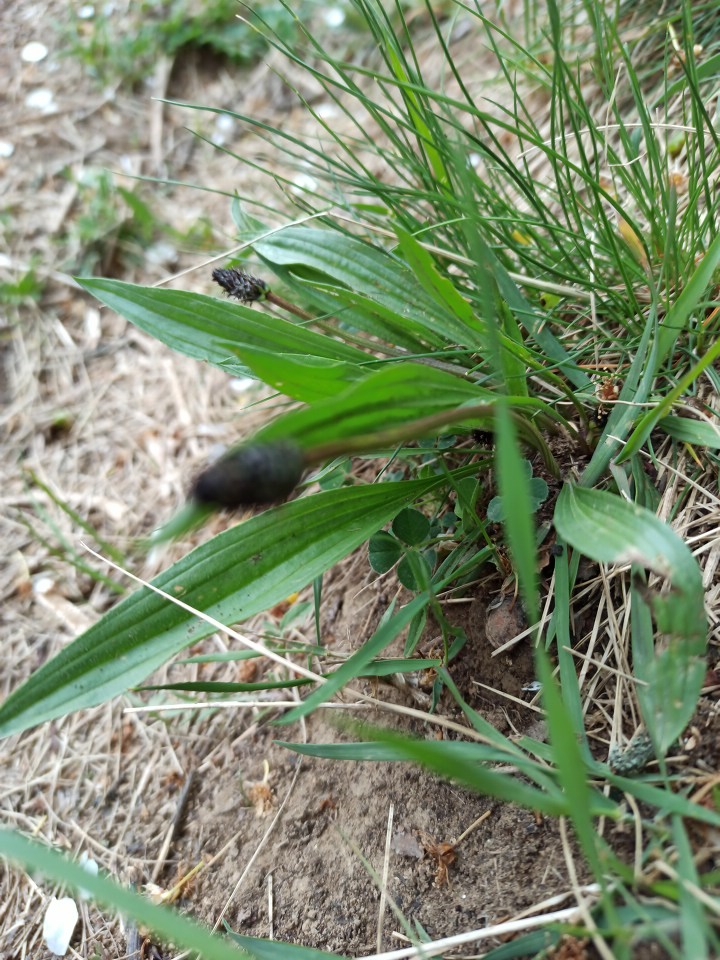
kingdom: Plantae
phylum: Tracheophyta
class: Magnoliopsida
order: Lamiales
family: Plantaginaceae
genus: Plantago
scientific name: Plantago lanceolata
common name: Ribwort plantain
